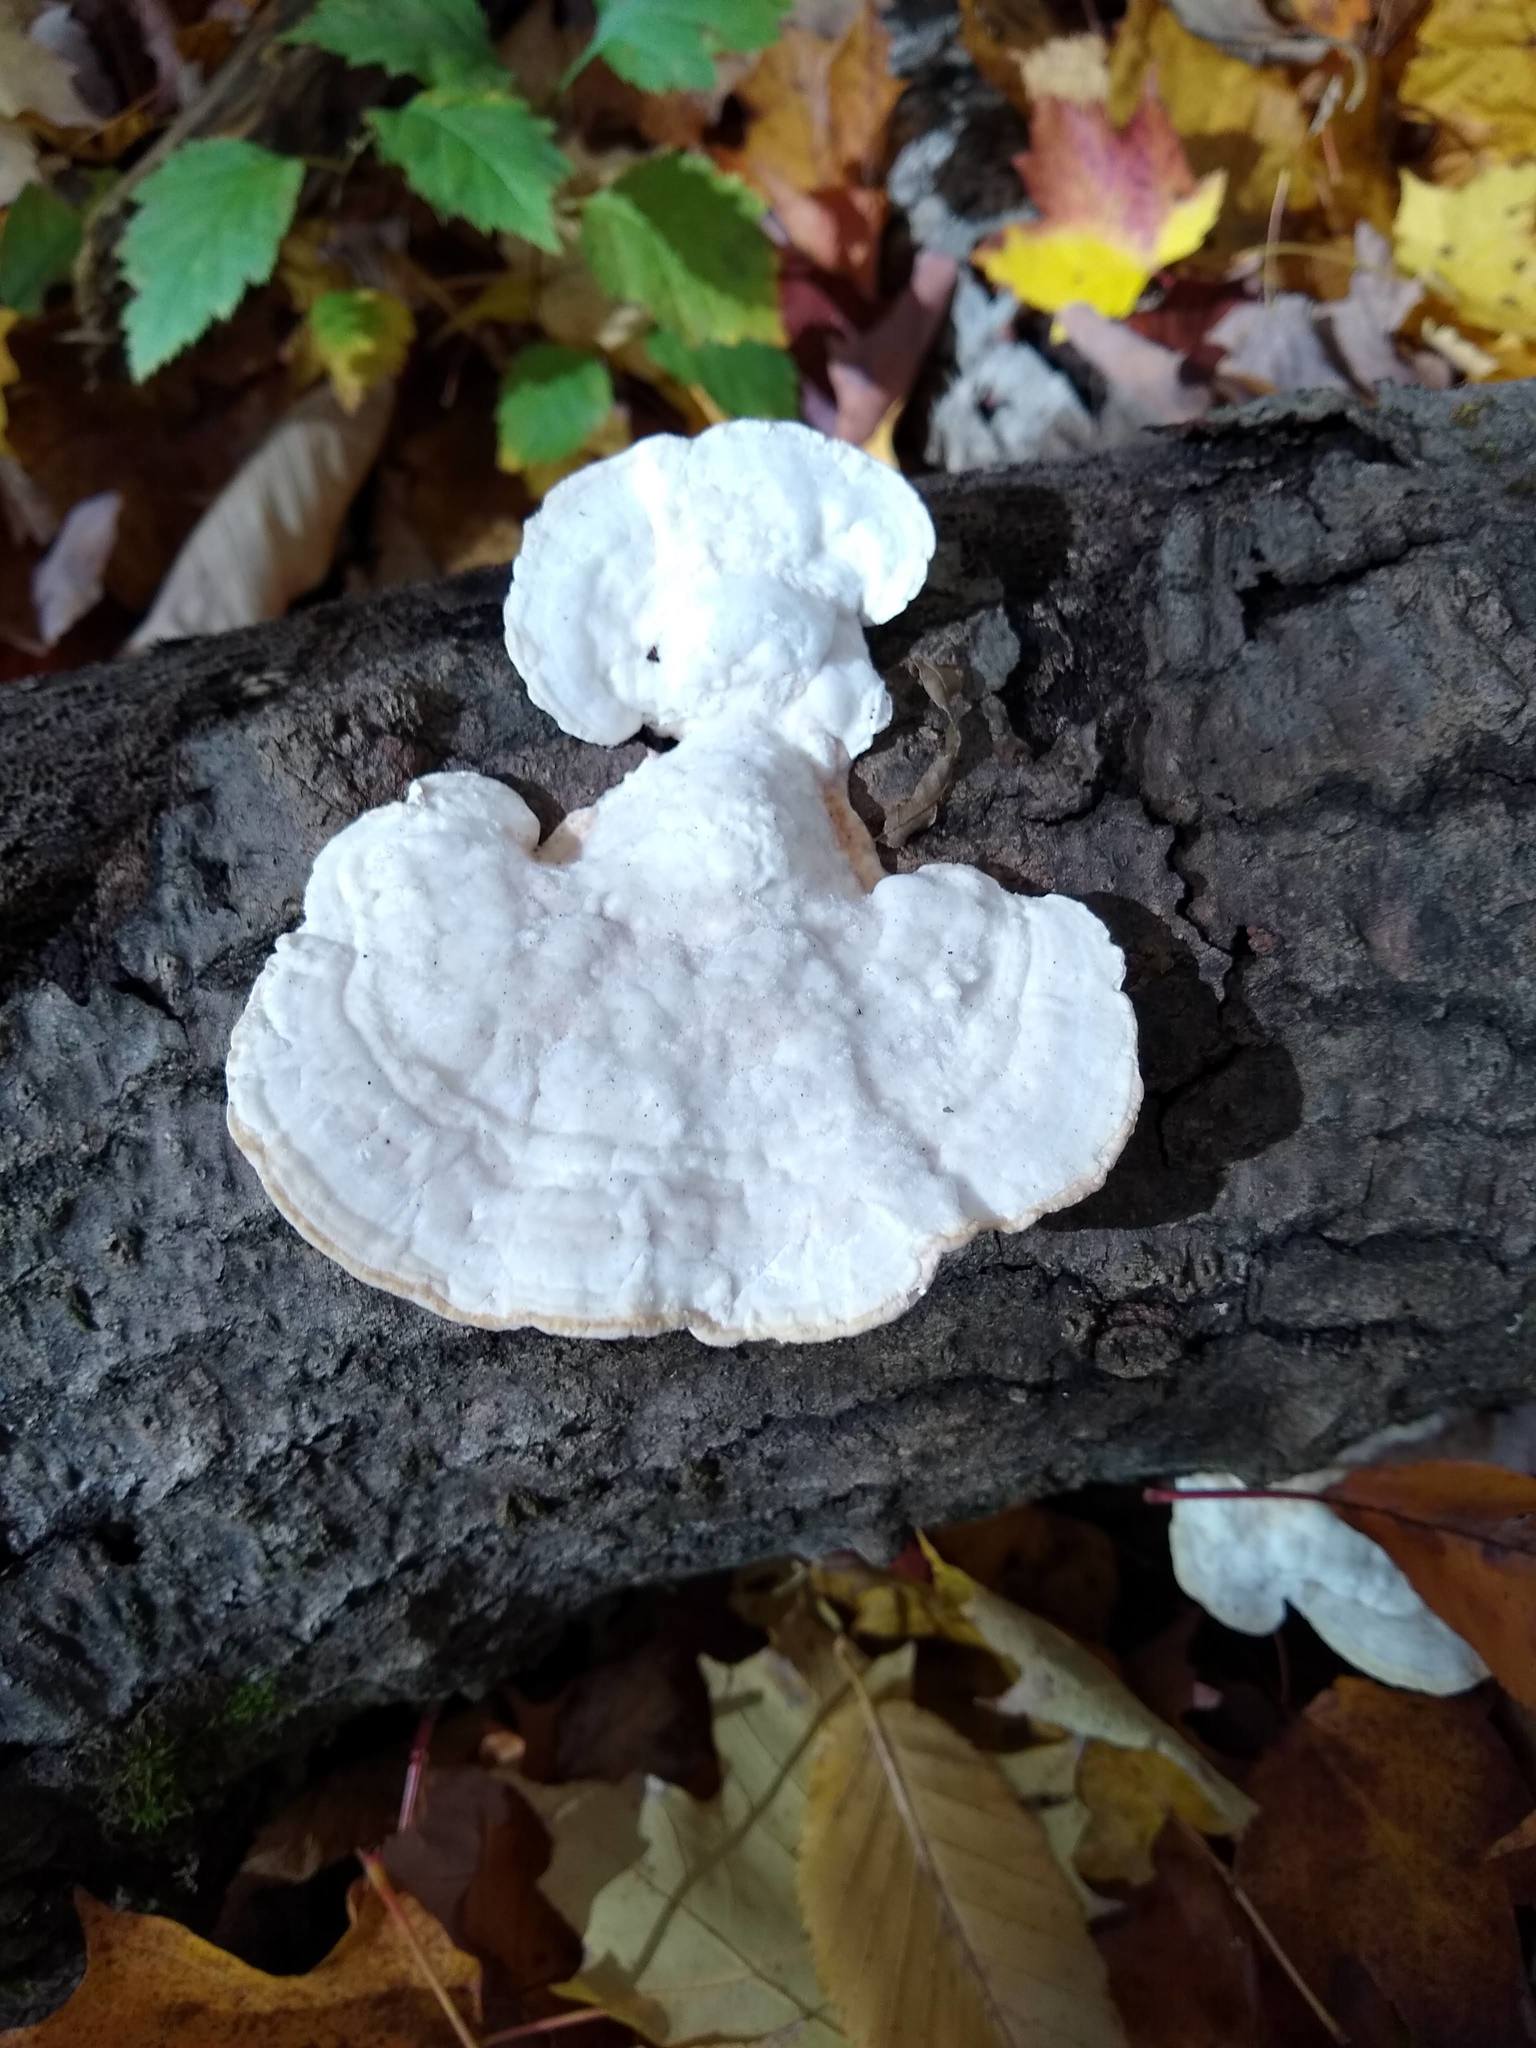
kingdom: Fungi
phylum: Basidiomycota
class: Agaricomycetes
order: Polyporales
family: Polyporaceae
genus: Trametes
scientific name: Trametes gibbosa
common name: Lumpy bracket
